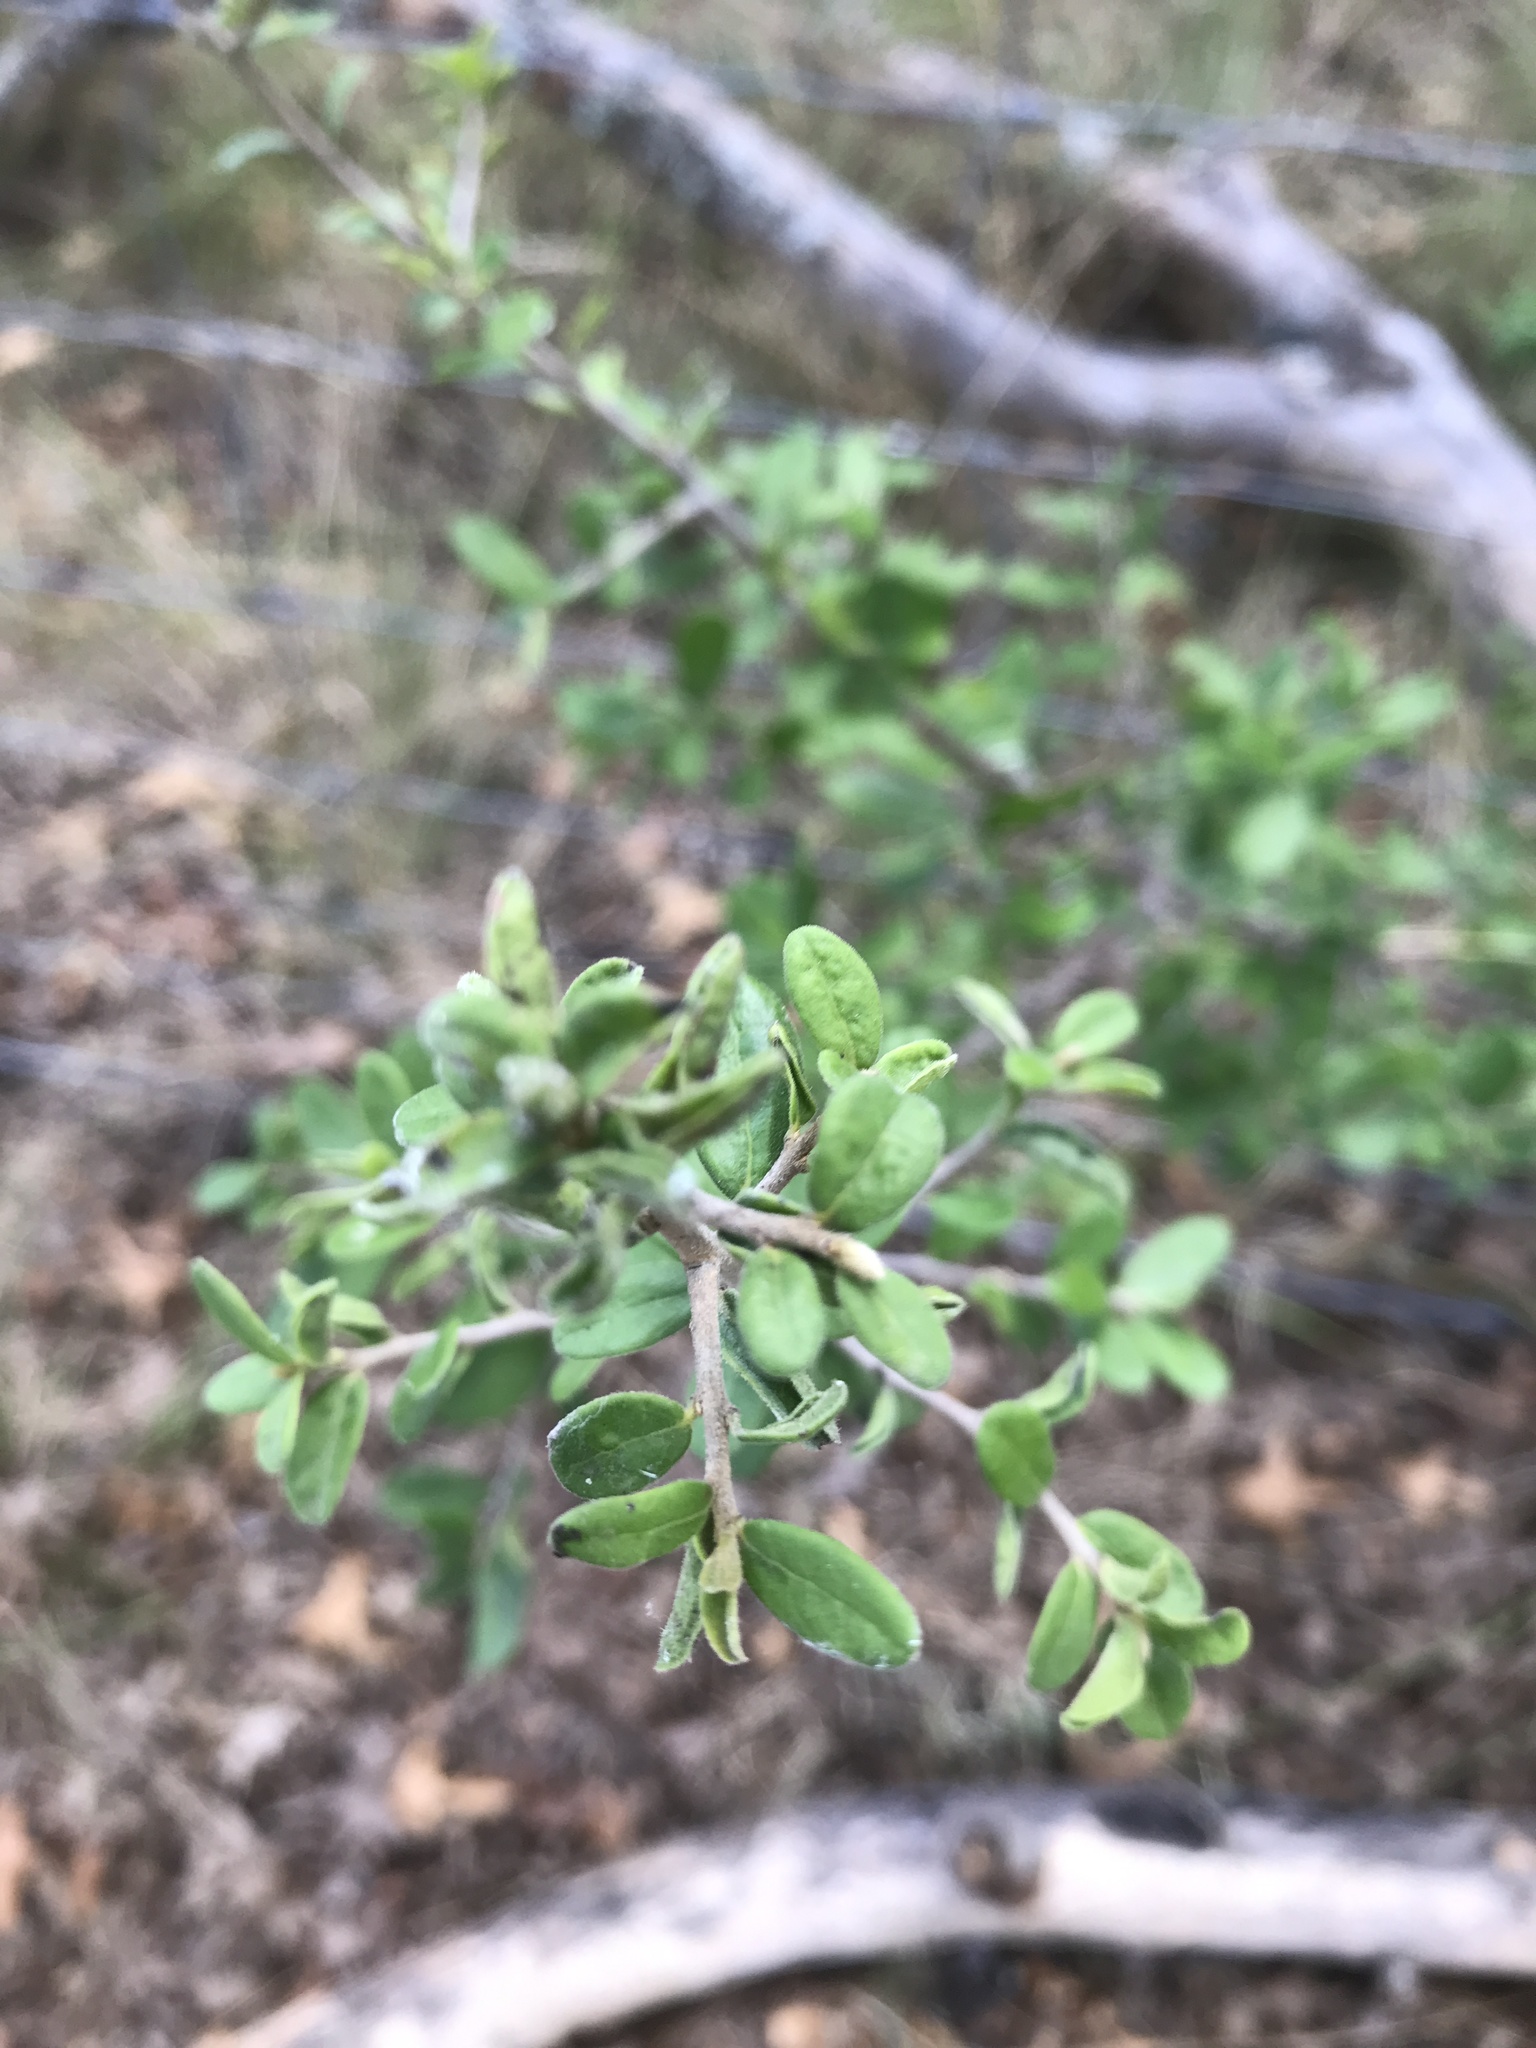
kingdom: Plantae
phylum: Tracheophyta
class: Magnoliopsida
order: Ericales
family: Ebenaceae
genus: Diospyros
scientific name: Diospyros texana
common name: Texas persimmon
